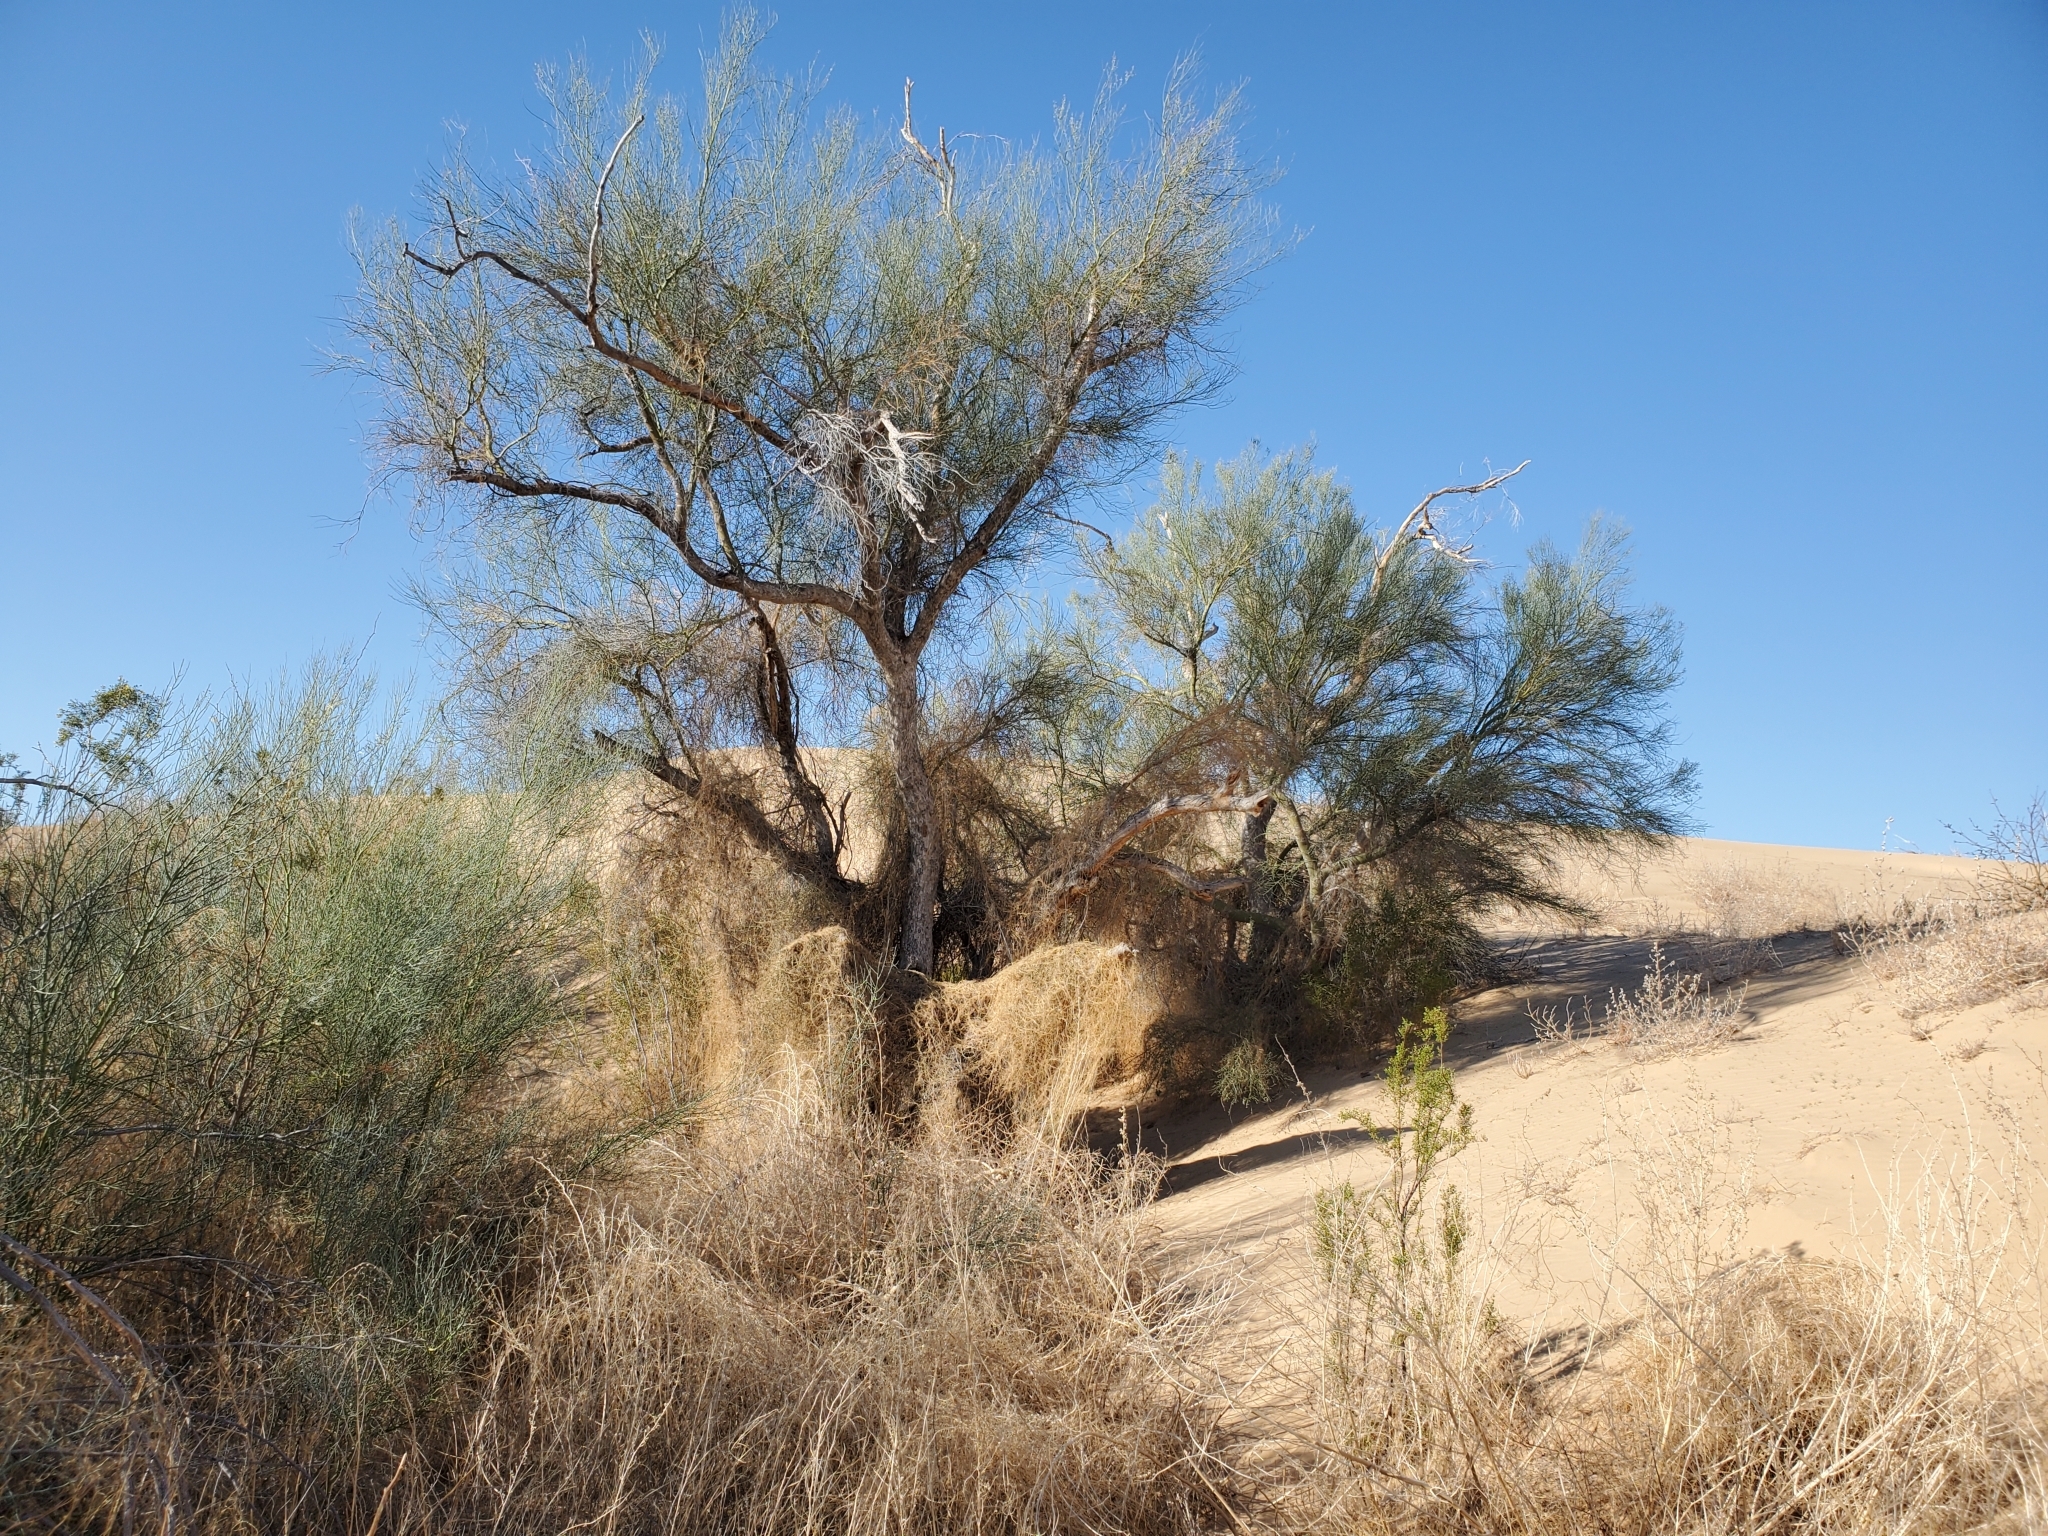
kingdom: Plantae
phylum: Tracheophyta
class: Magnoliopsida
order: Fabales
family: Fabaceae
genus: Parkinsonia
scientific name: Parkinsonia florida
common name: Blue paloverde
